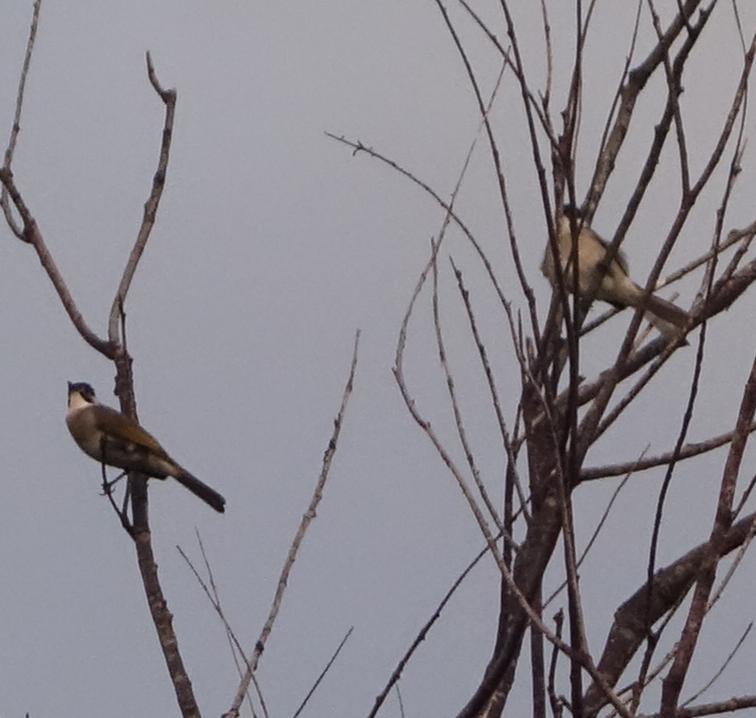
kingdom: Animalia
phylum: Chordata
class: Aves
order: Passeriformes
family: Pycnonotidae
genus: Pycnonotus
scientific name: Pycnonotus taivanus
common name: Styan's bulbul
